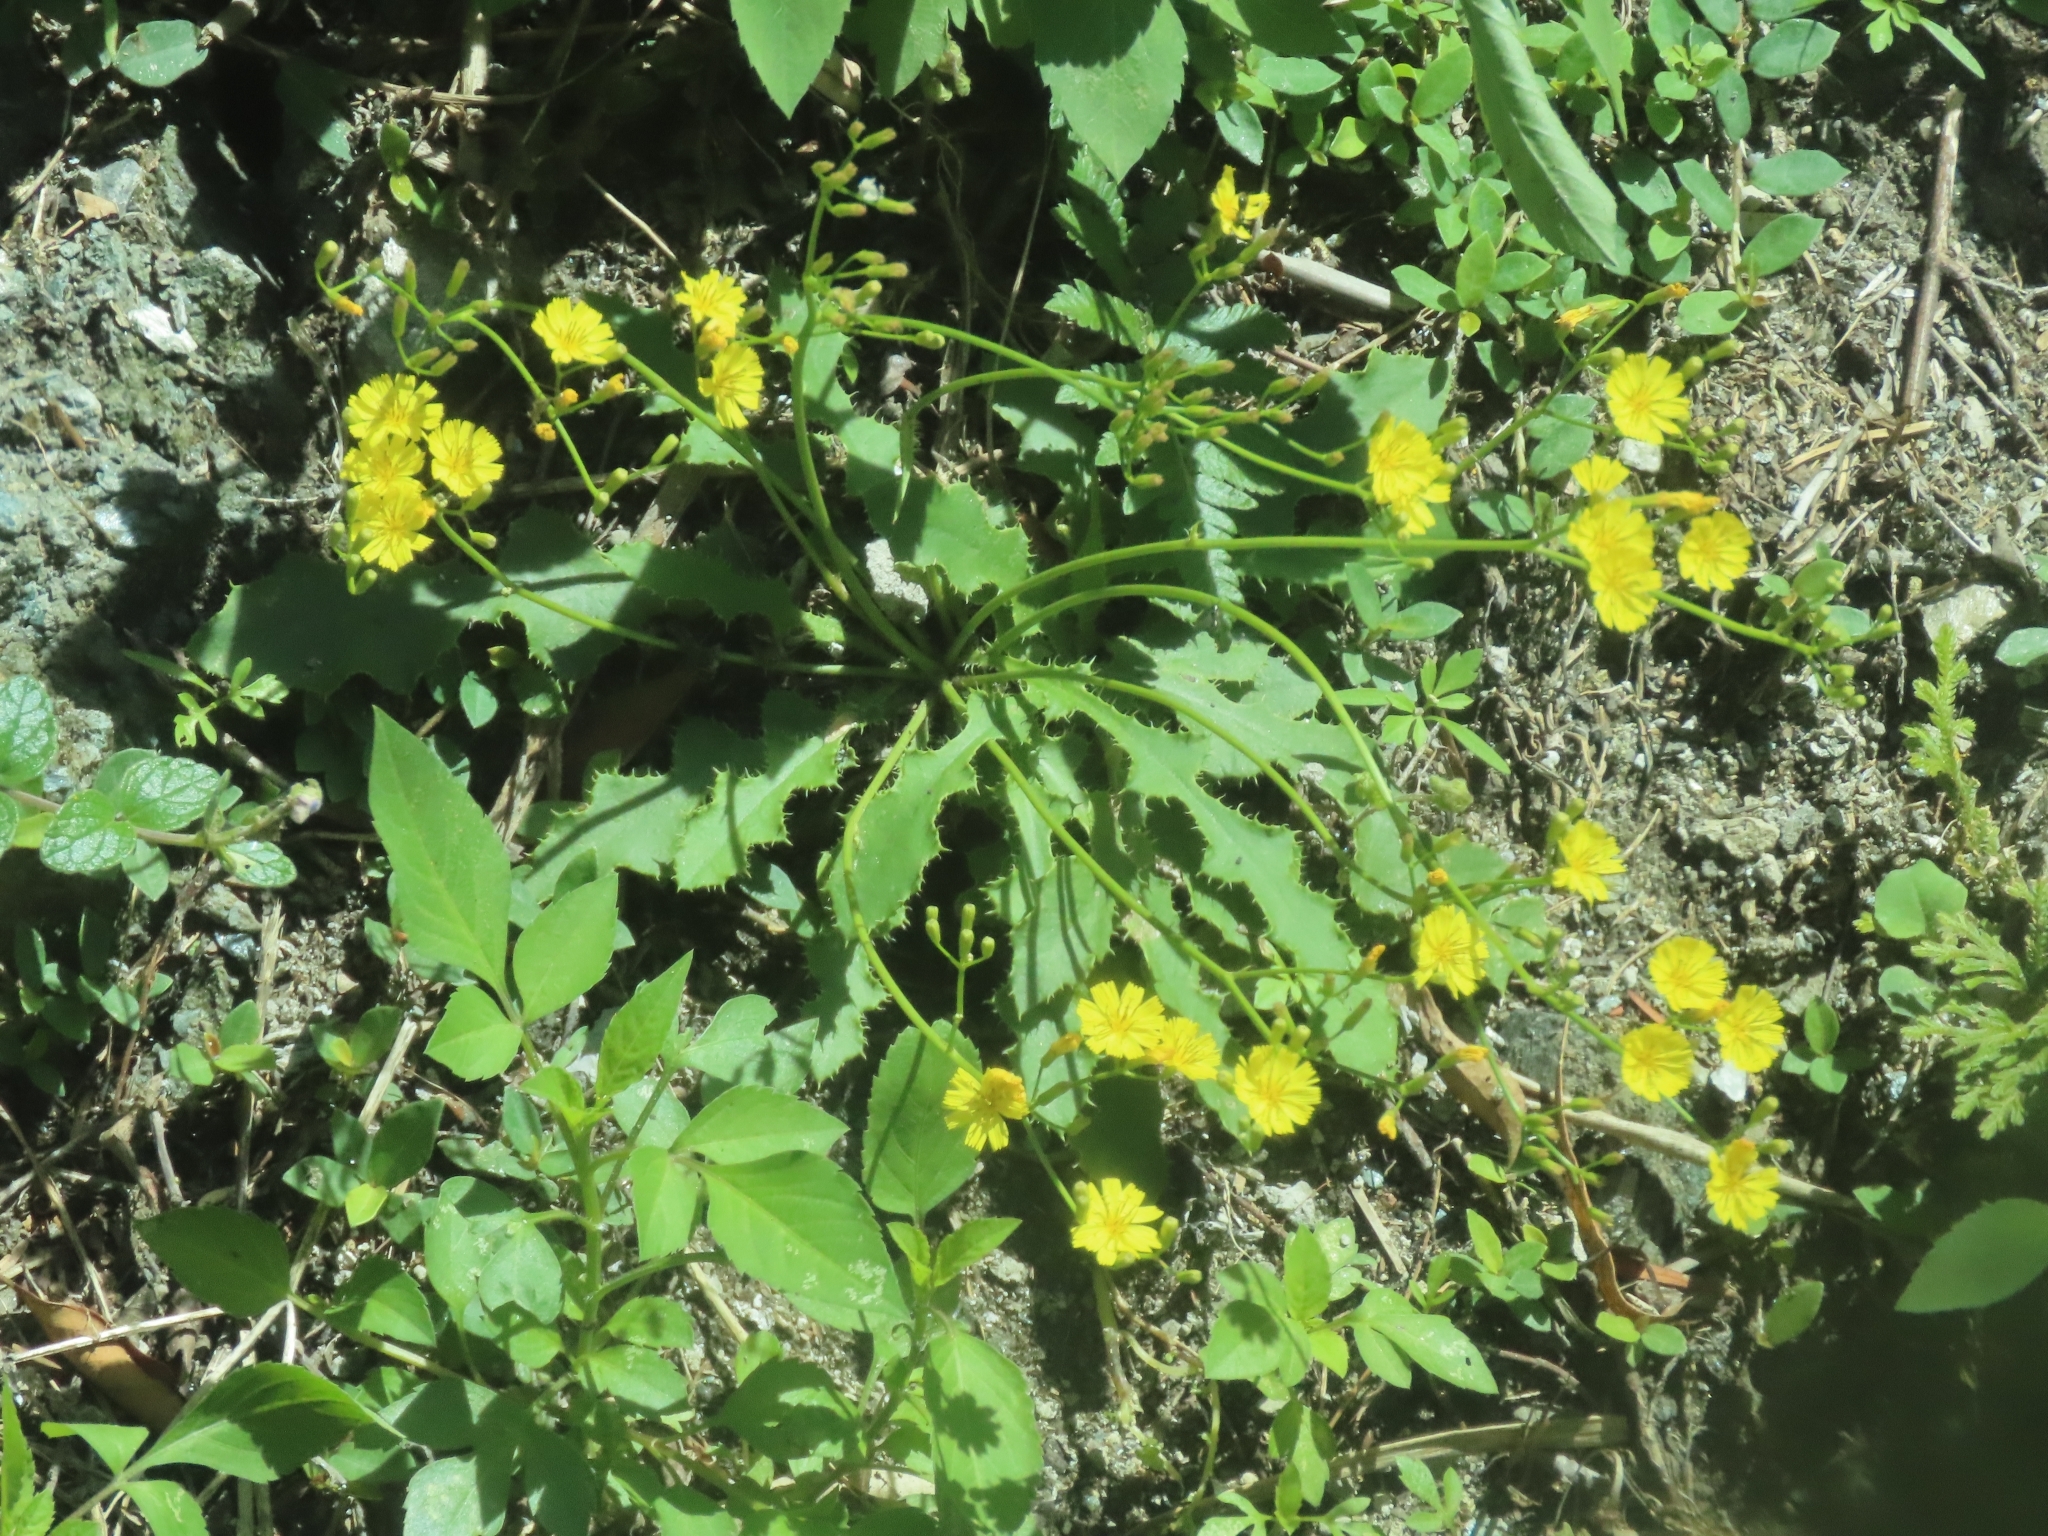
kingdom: Plantae
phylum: Tracheophyta
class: Magnoliopsida
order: Asterales
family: Asteraceae
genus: Ixeridium
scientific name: Ixeridium laevigatum
